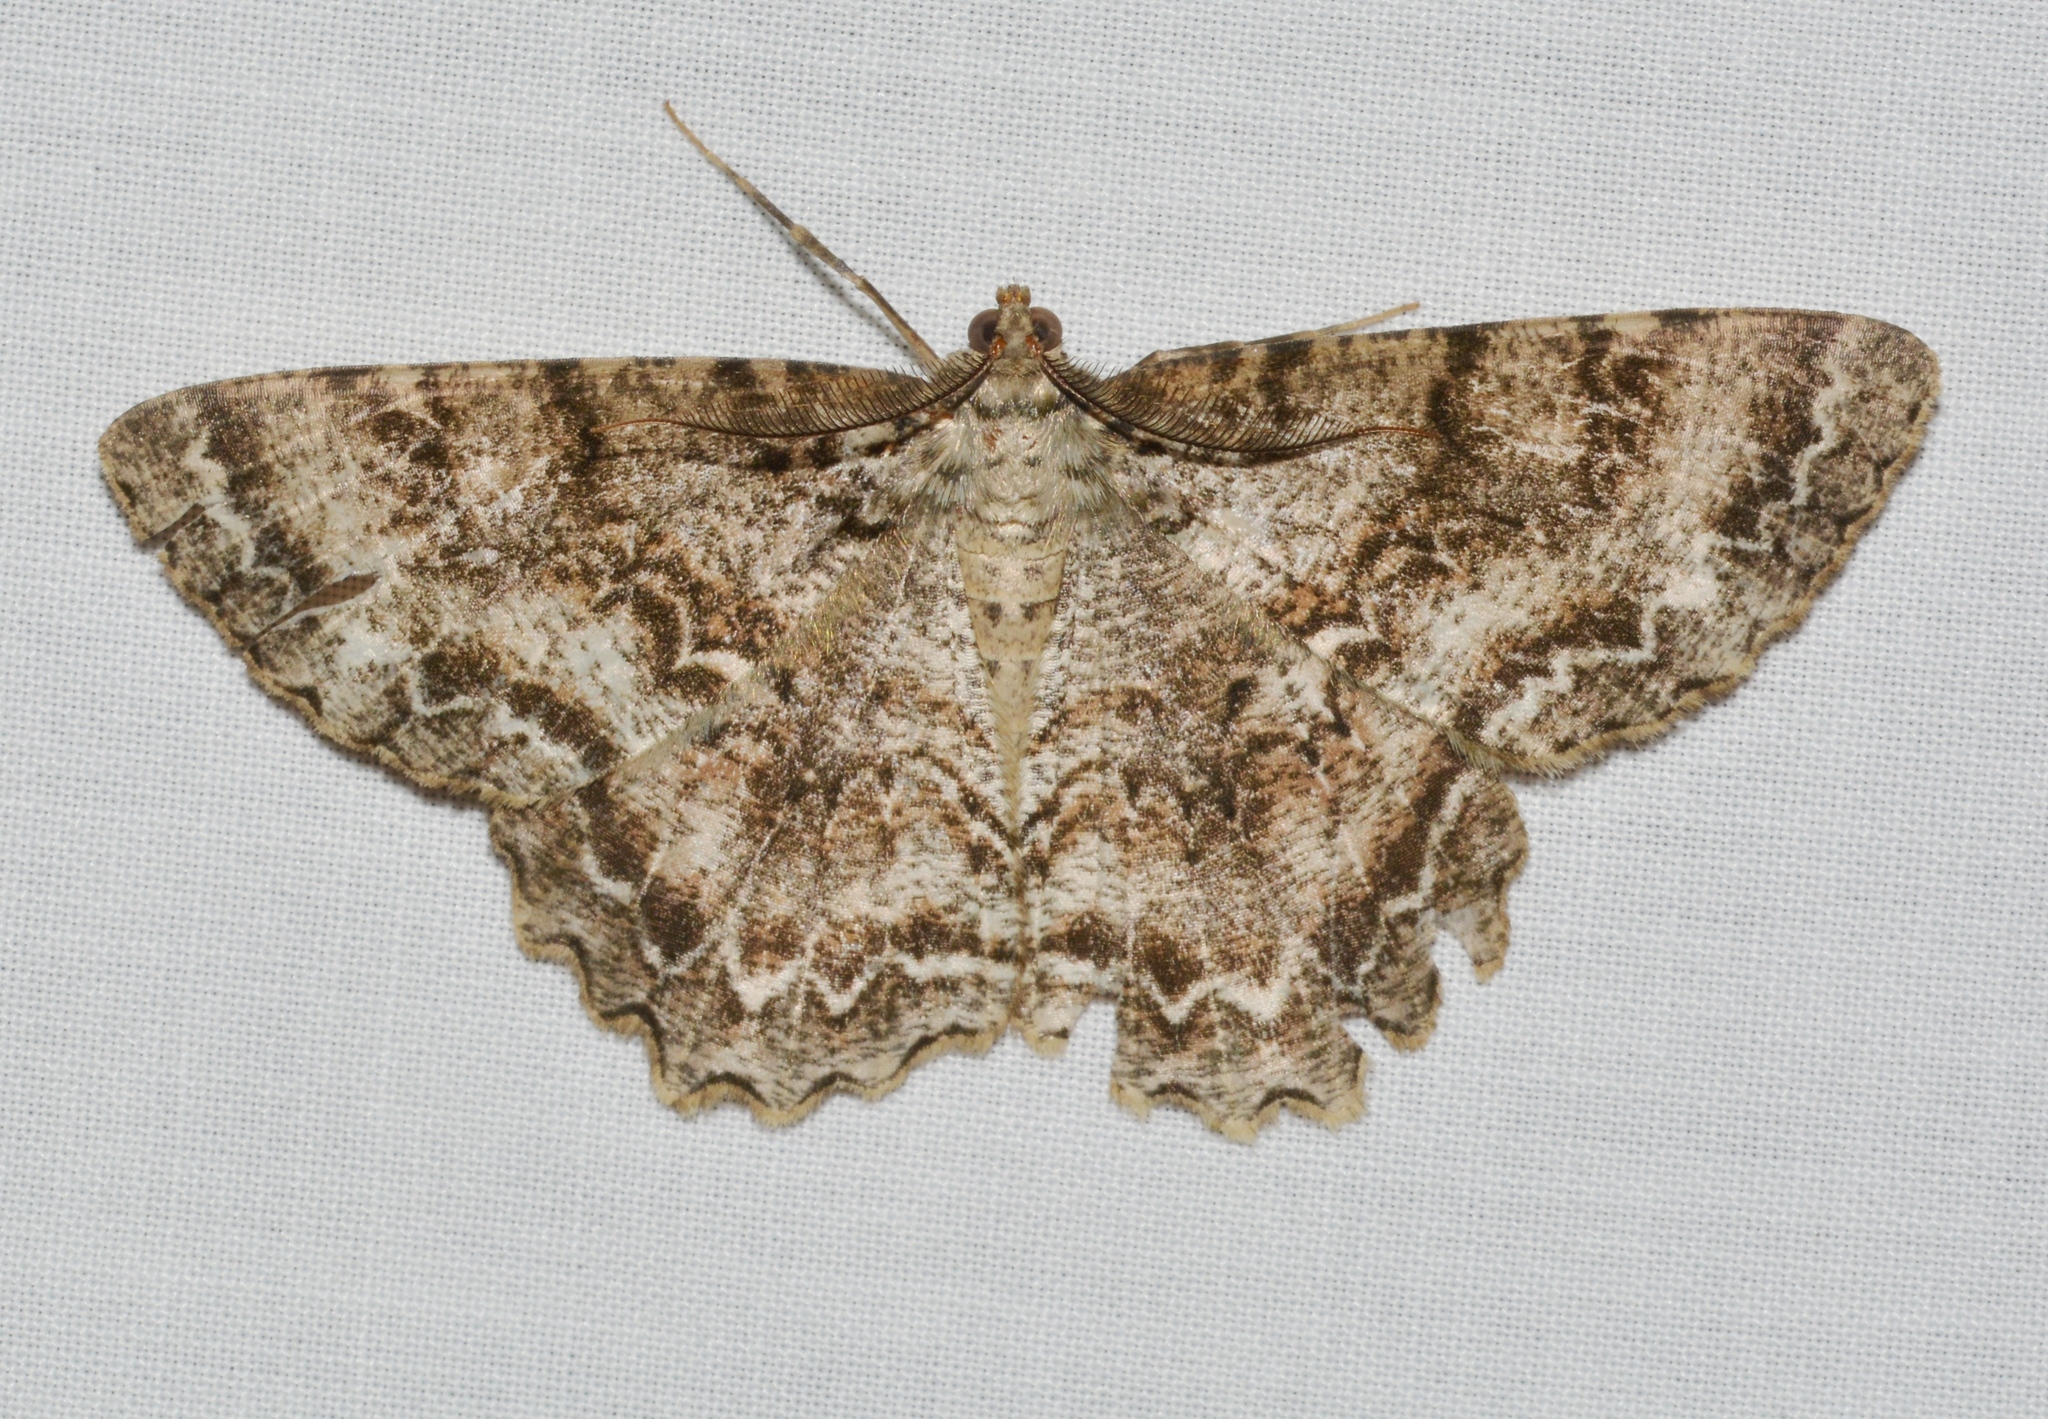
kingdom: Animalia
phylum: Arthropoda
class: Insecta
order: Lepidoptera
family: Geometridae
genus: Epimecis
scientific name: Epimecis hortaria
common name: Tulip-tree beauty
